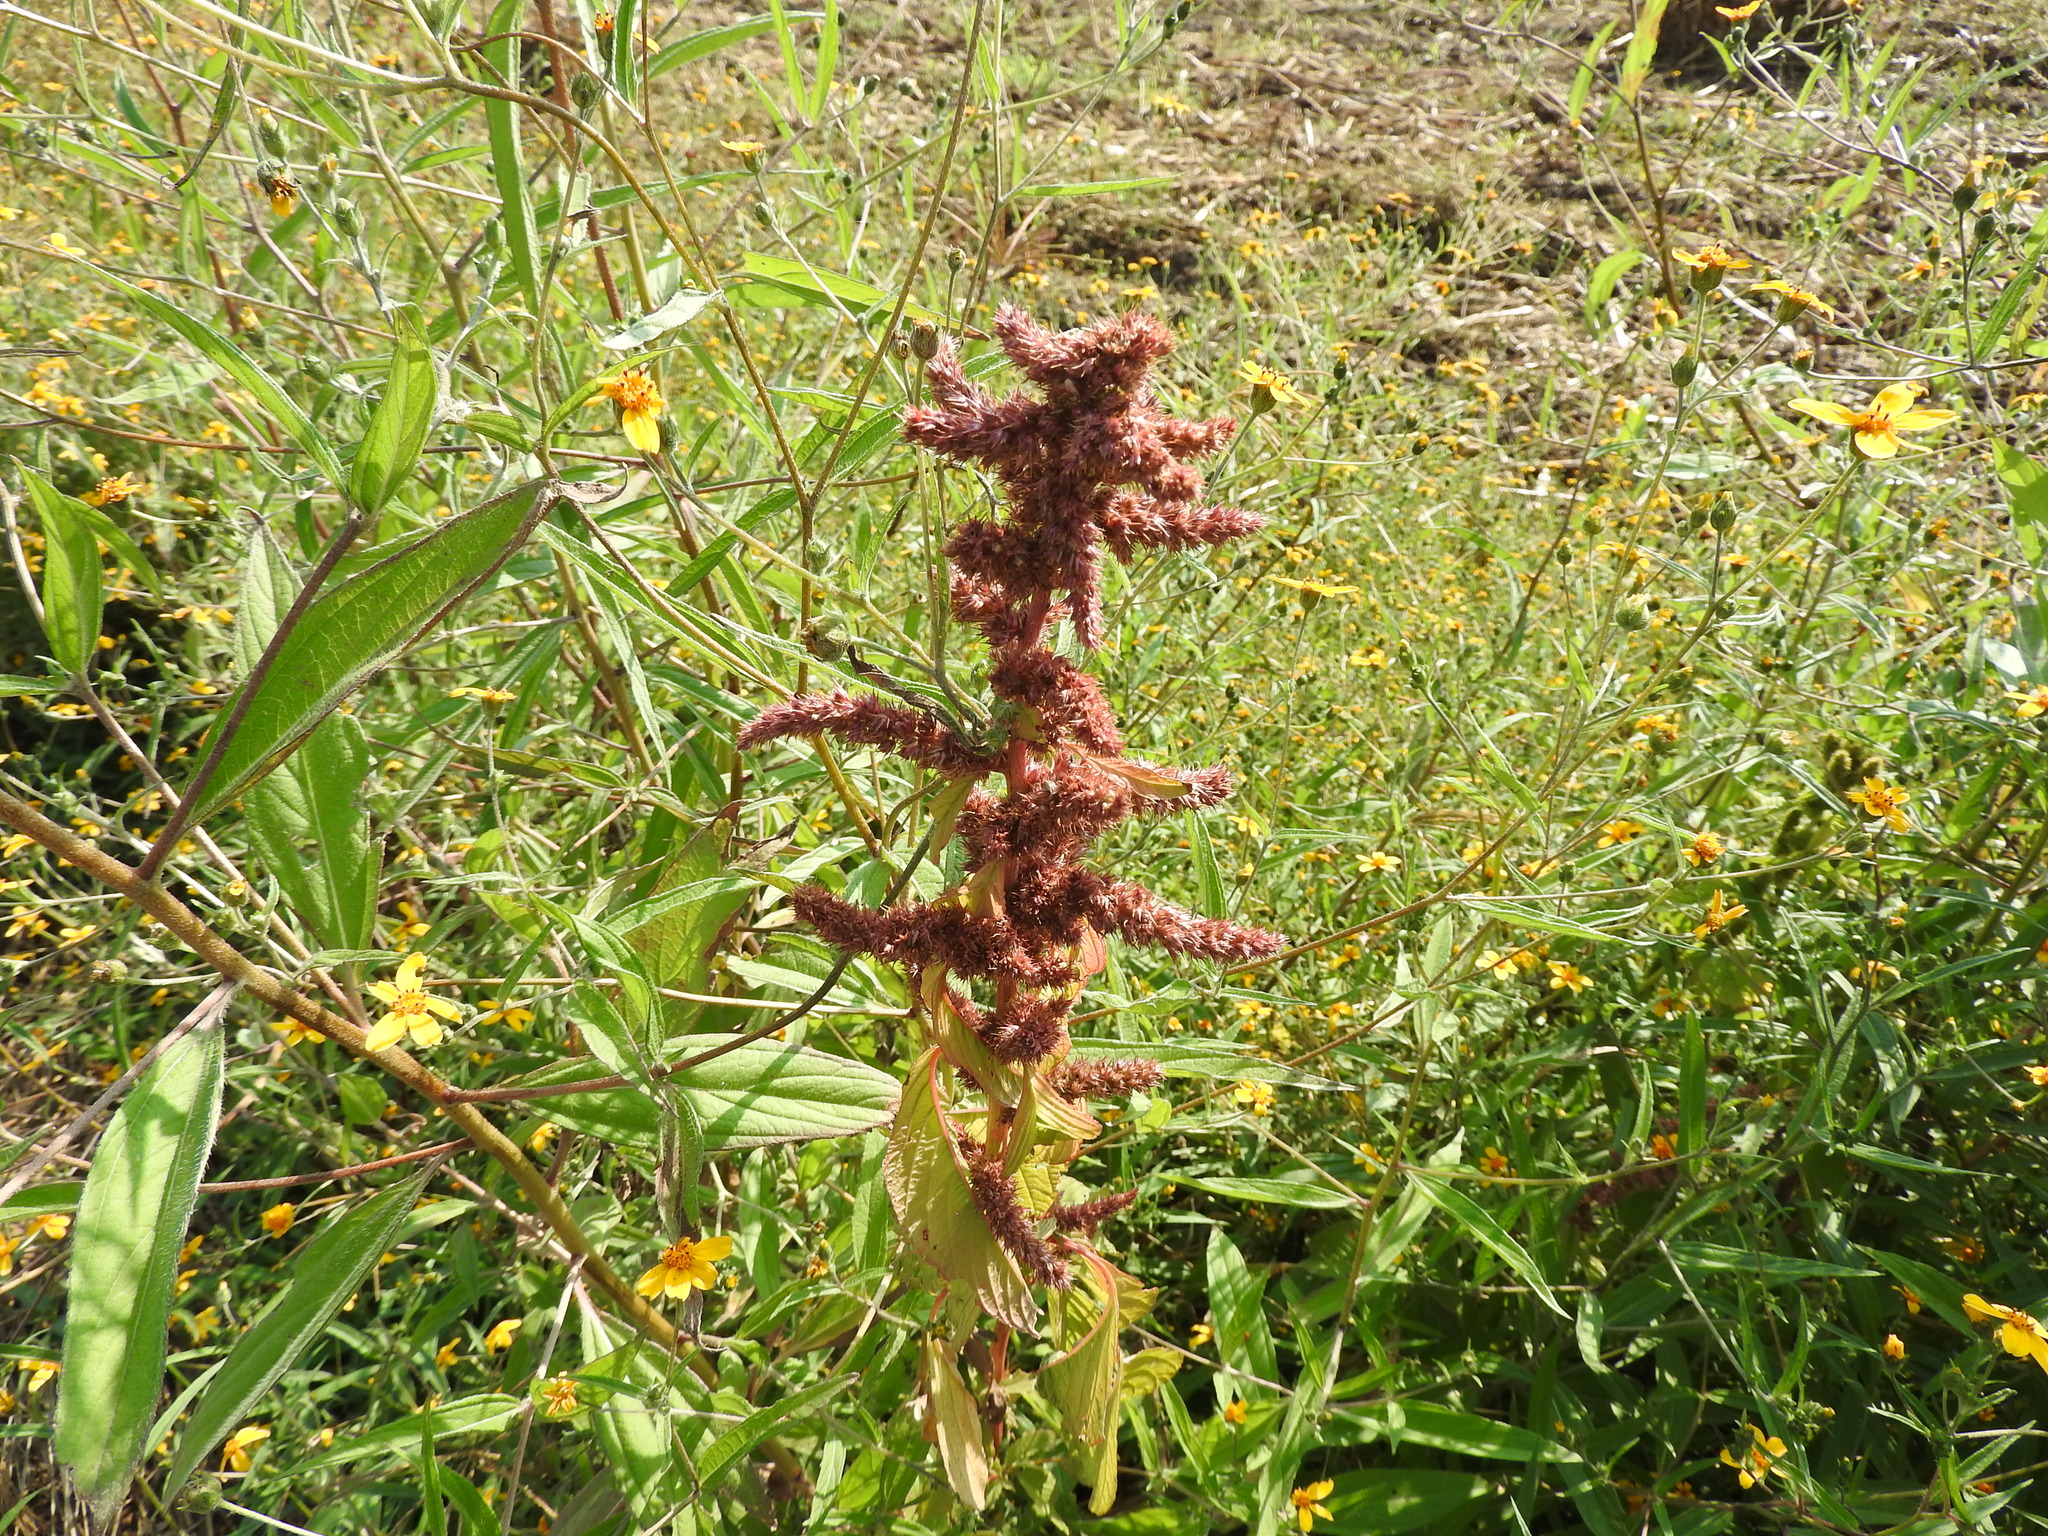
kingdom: Plantae
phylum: Tracheophyta
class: Magnoliopsida
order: Caryophyllales
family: Amaranthaceae
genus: Amaranthus
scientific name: Amaranthus cruentus
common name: Purple amaranth
